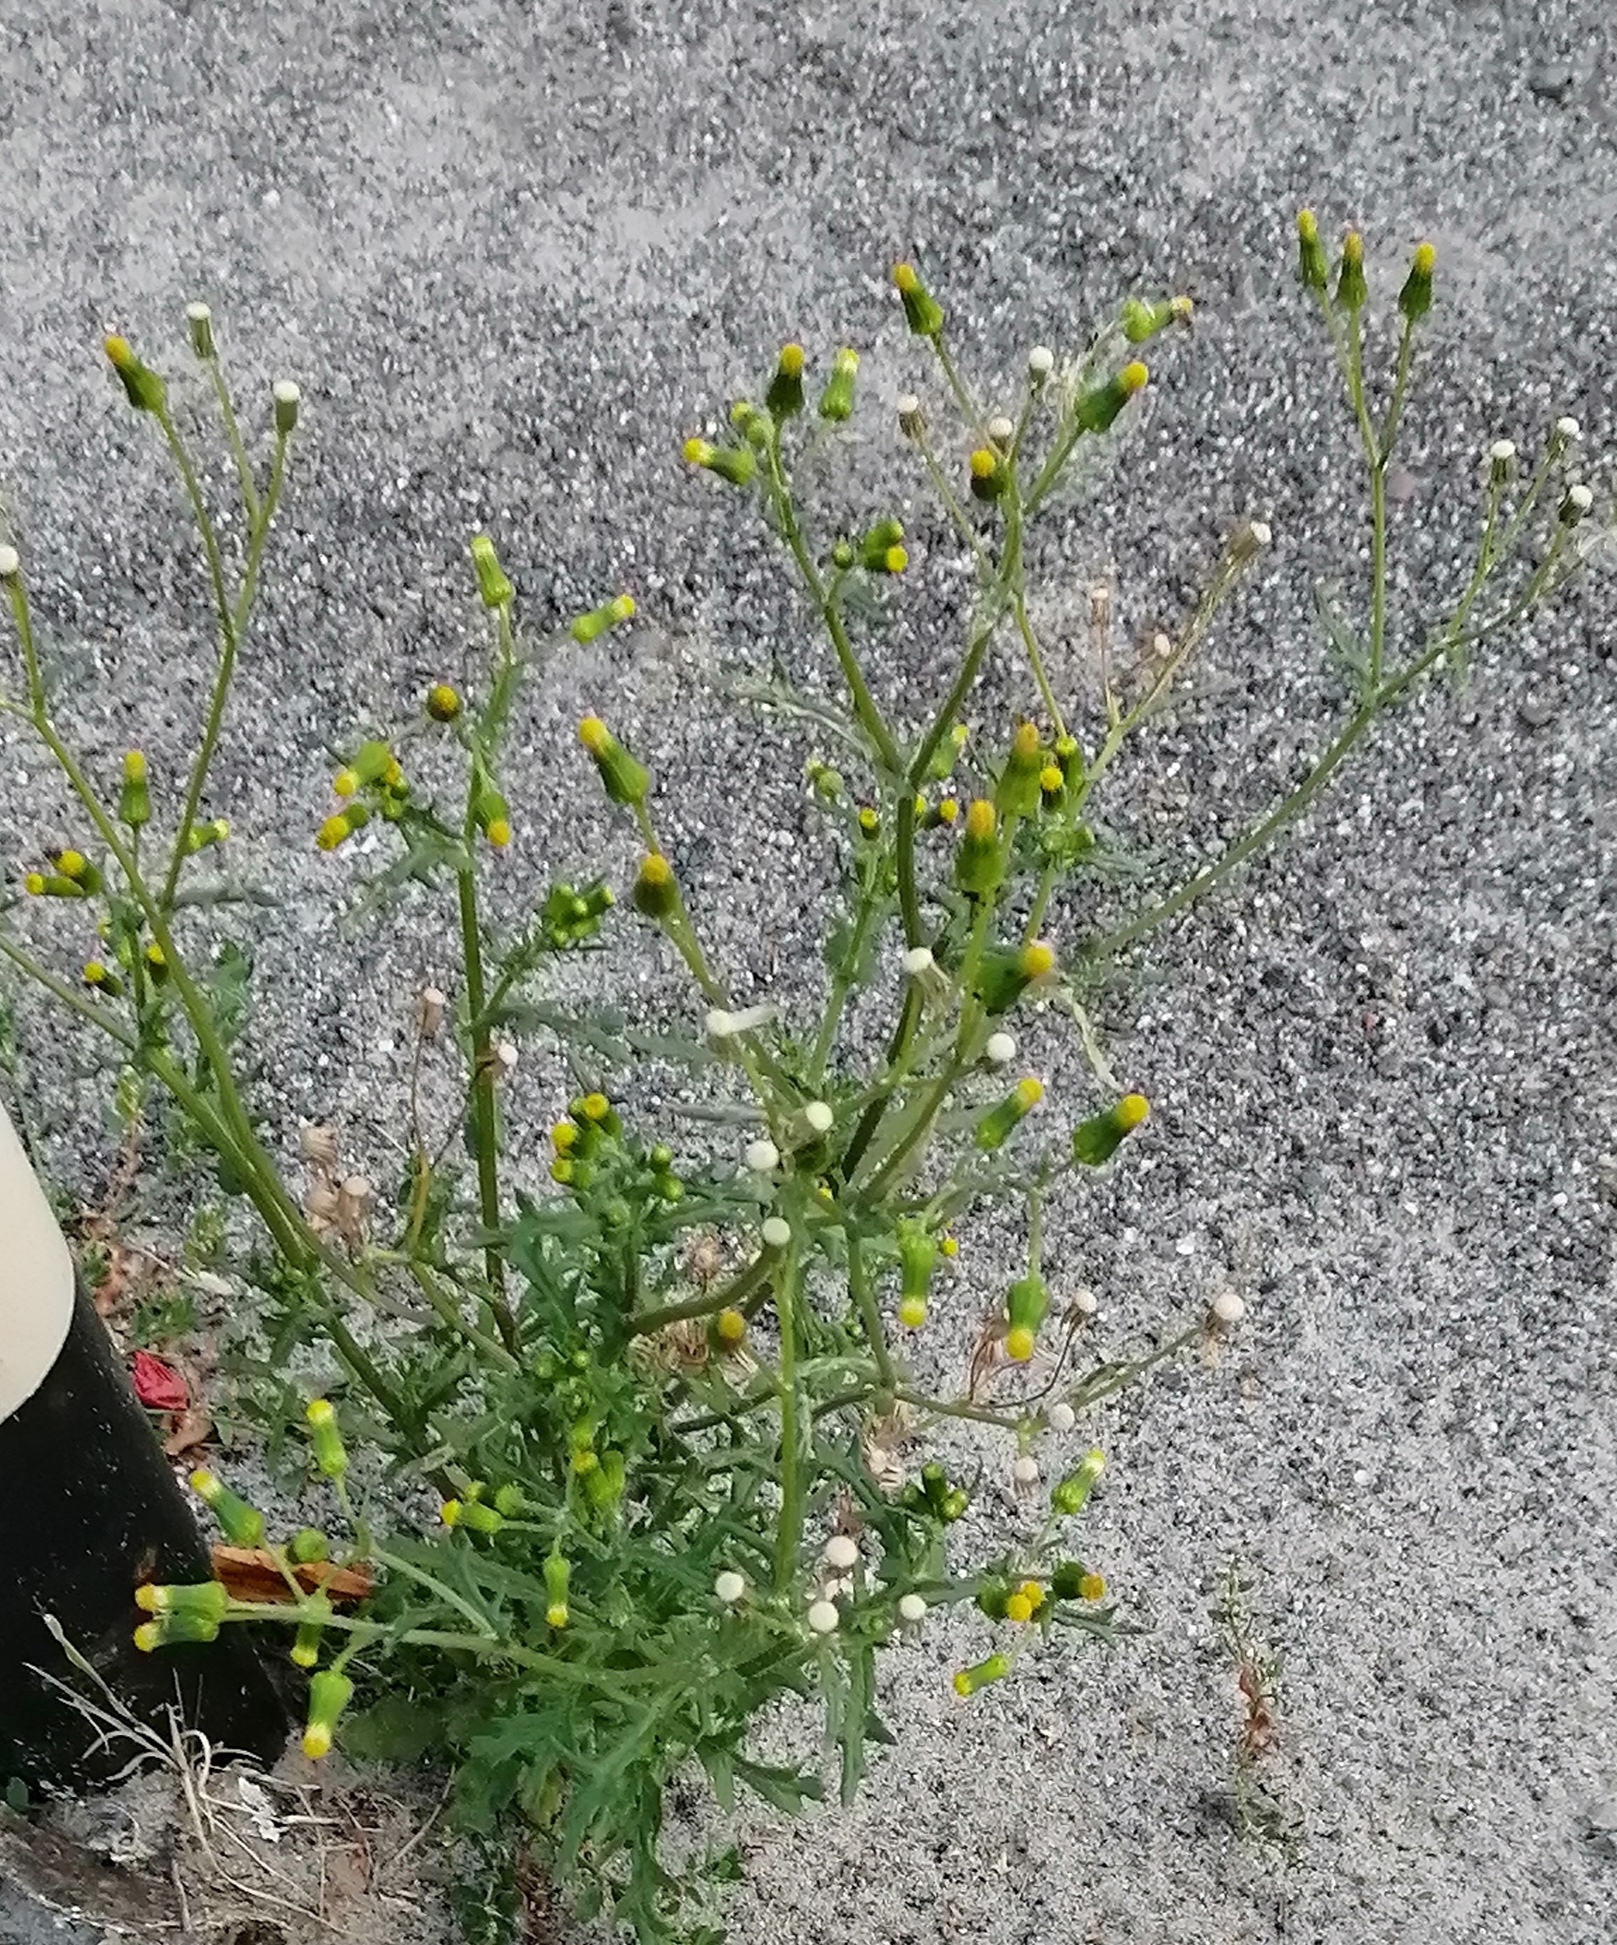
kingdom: Plantae
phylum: Tracheophyta
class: Magnoliopsida
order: Asterales
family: Asteraceae
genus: Senecio
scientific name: Senecio vulgaris
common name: Old-man-in-the-spring
